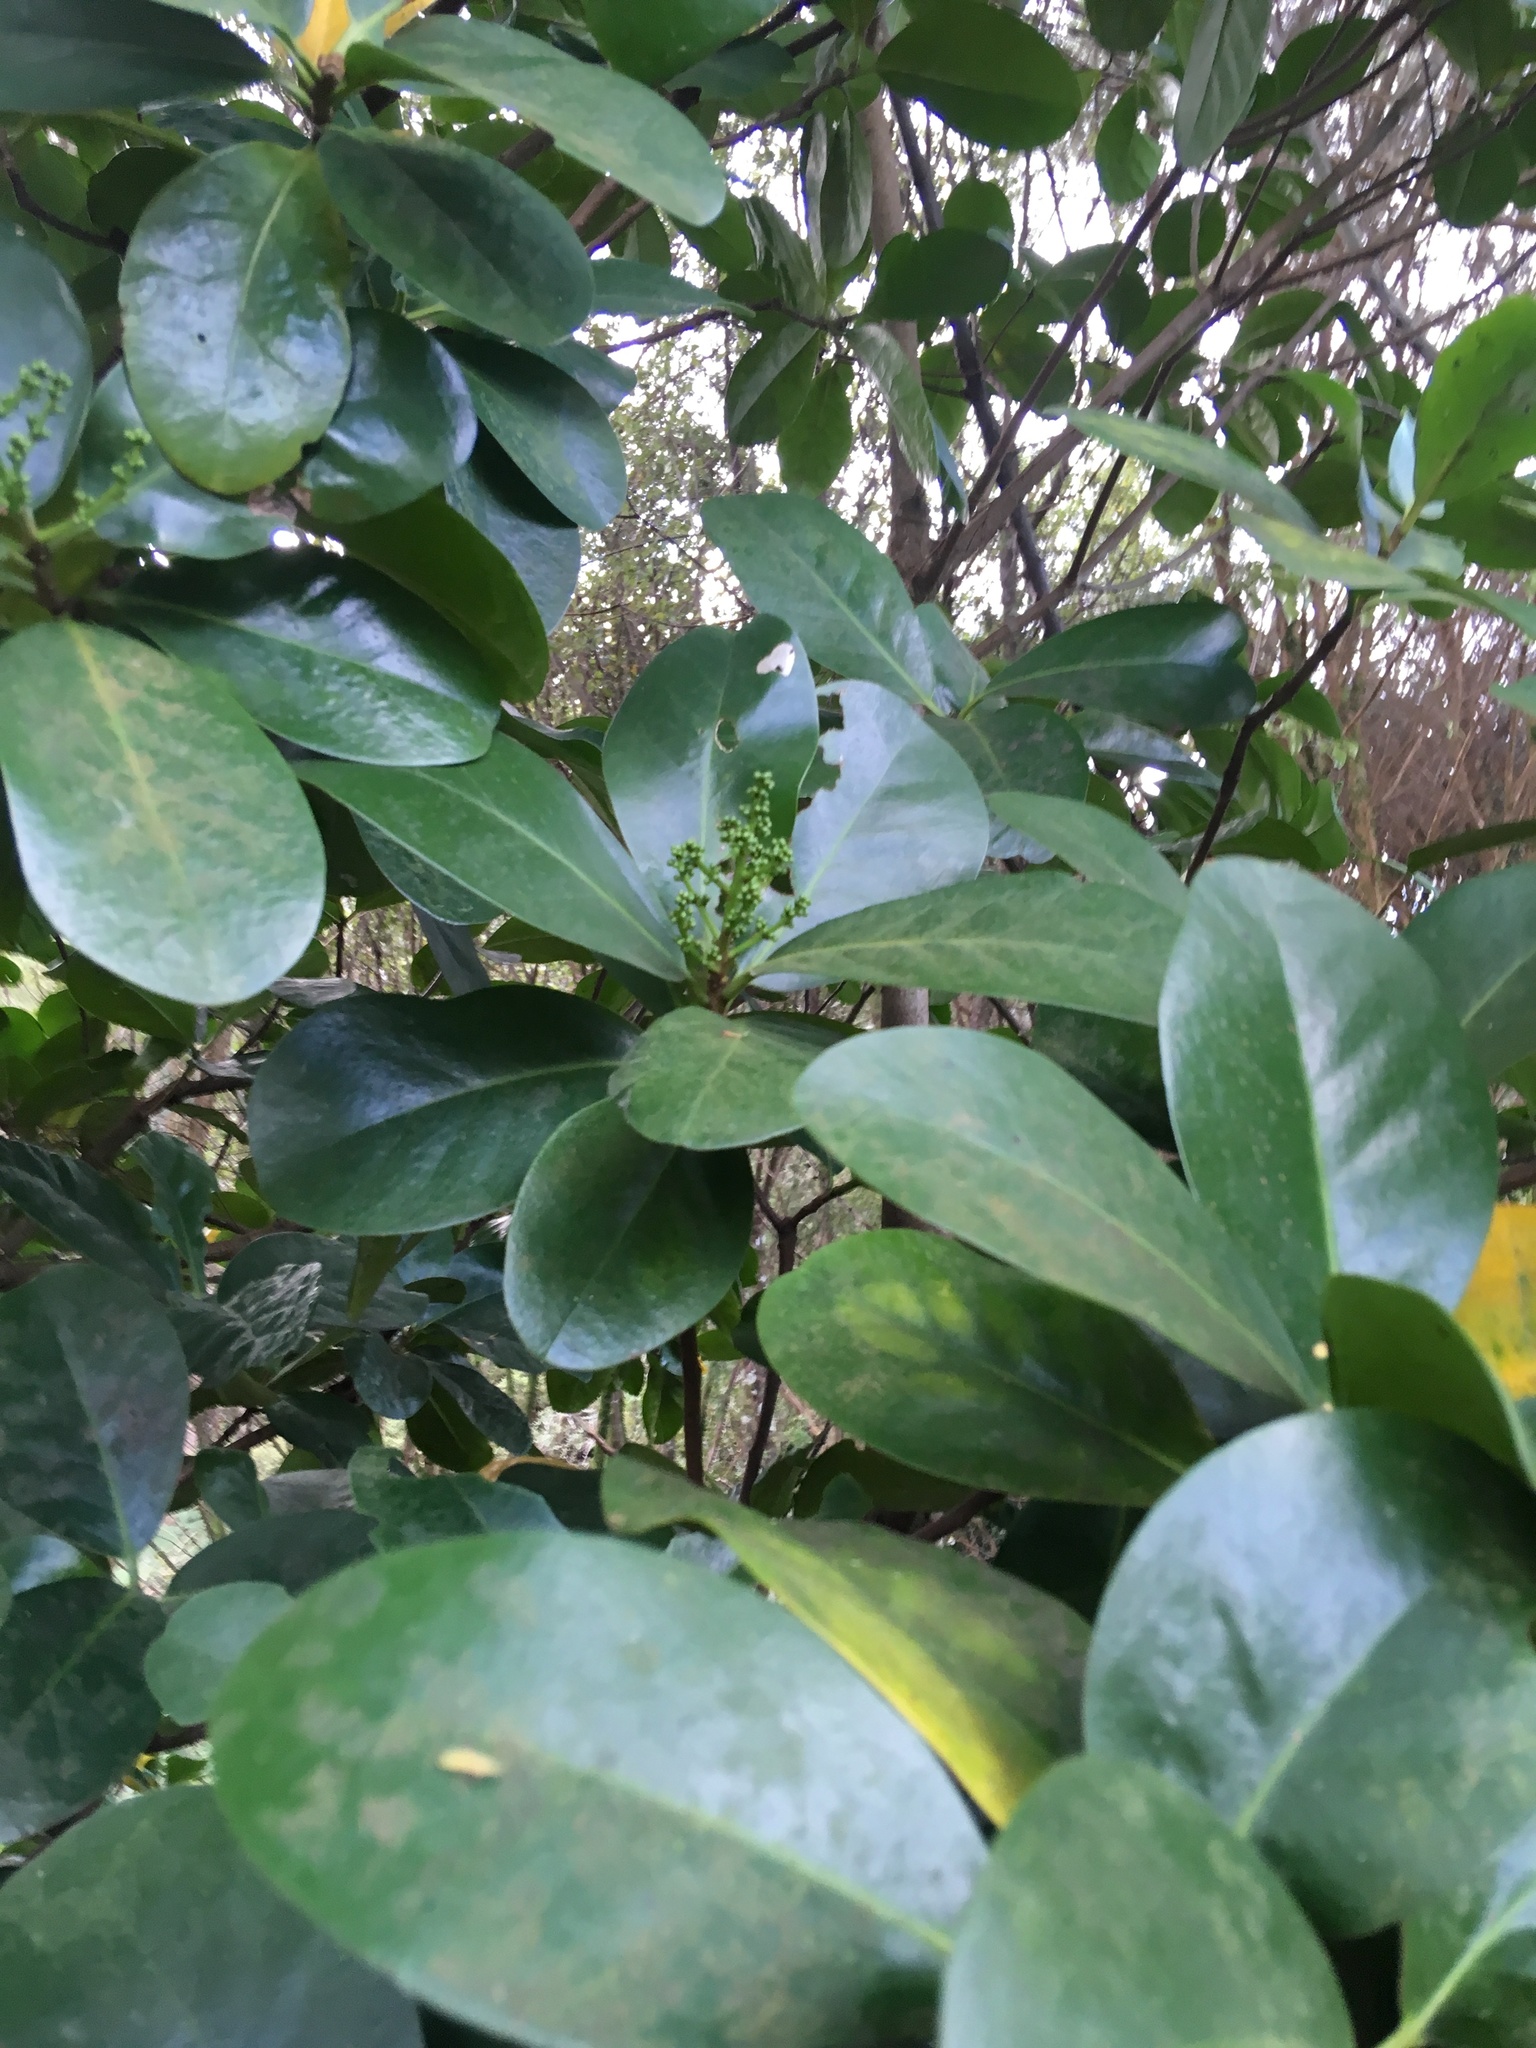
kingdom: Plantae
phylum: Tracheophyta
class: Magnoliopsida
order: Cucurbitales
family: Corynocarpaceae
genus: Corynocarpus
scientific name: Corynocarpus laevigatus
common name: New zealand laurel
